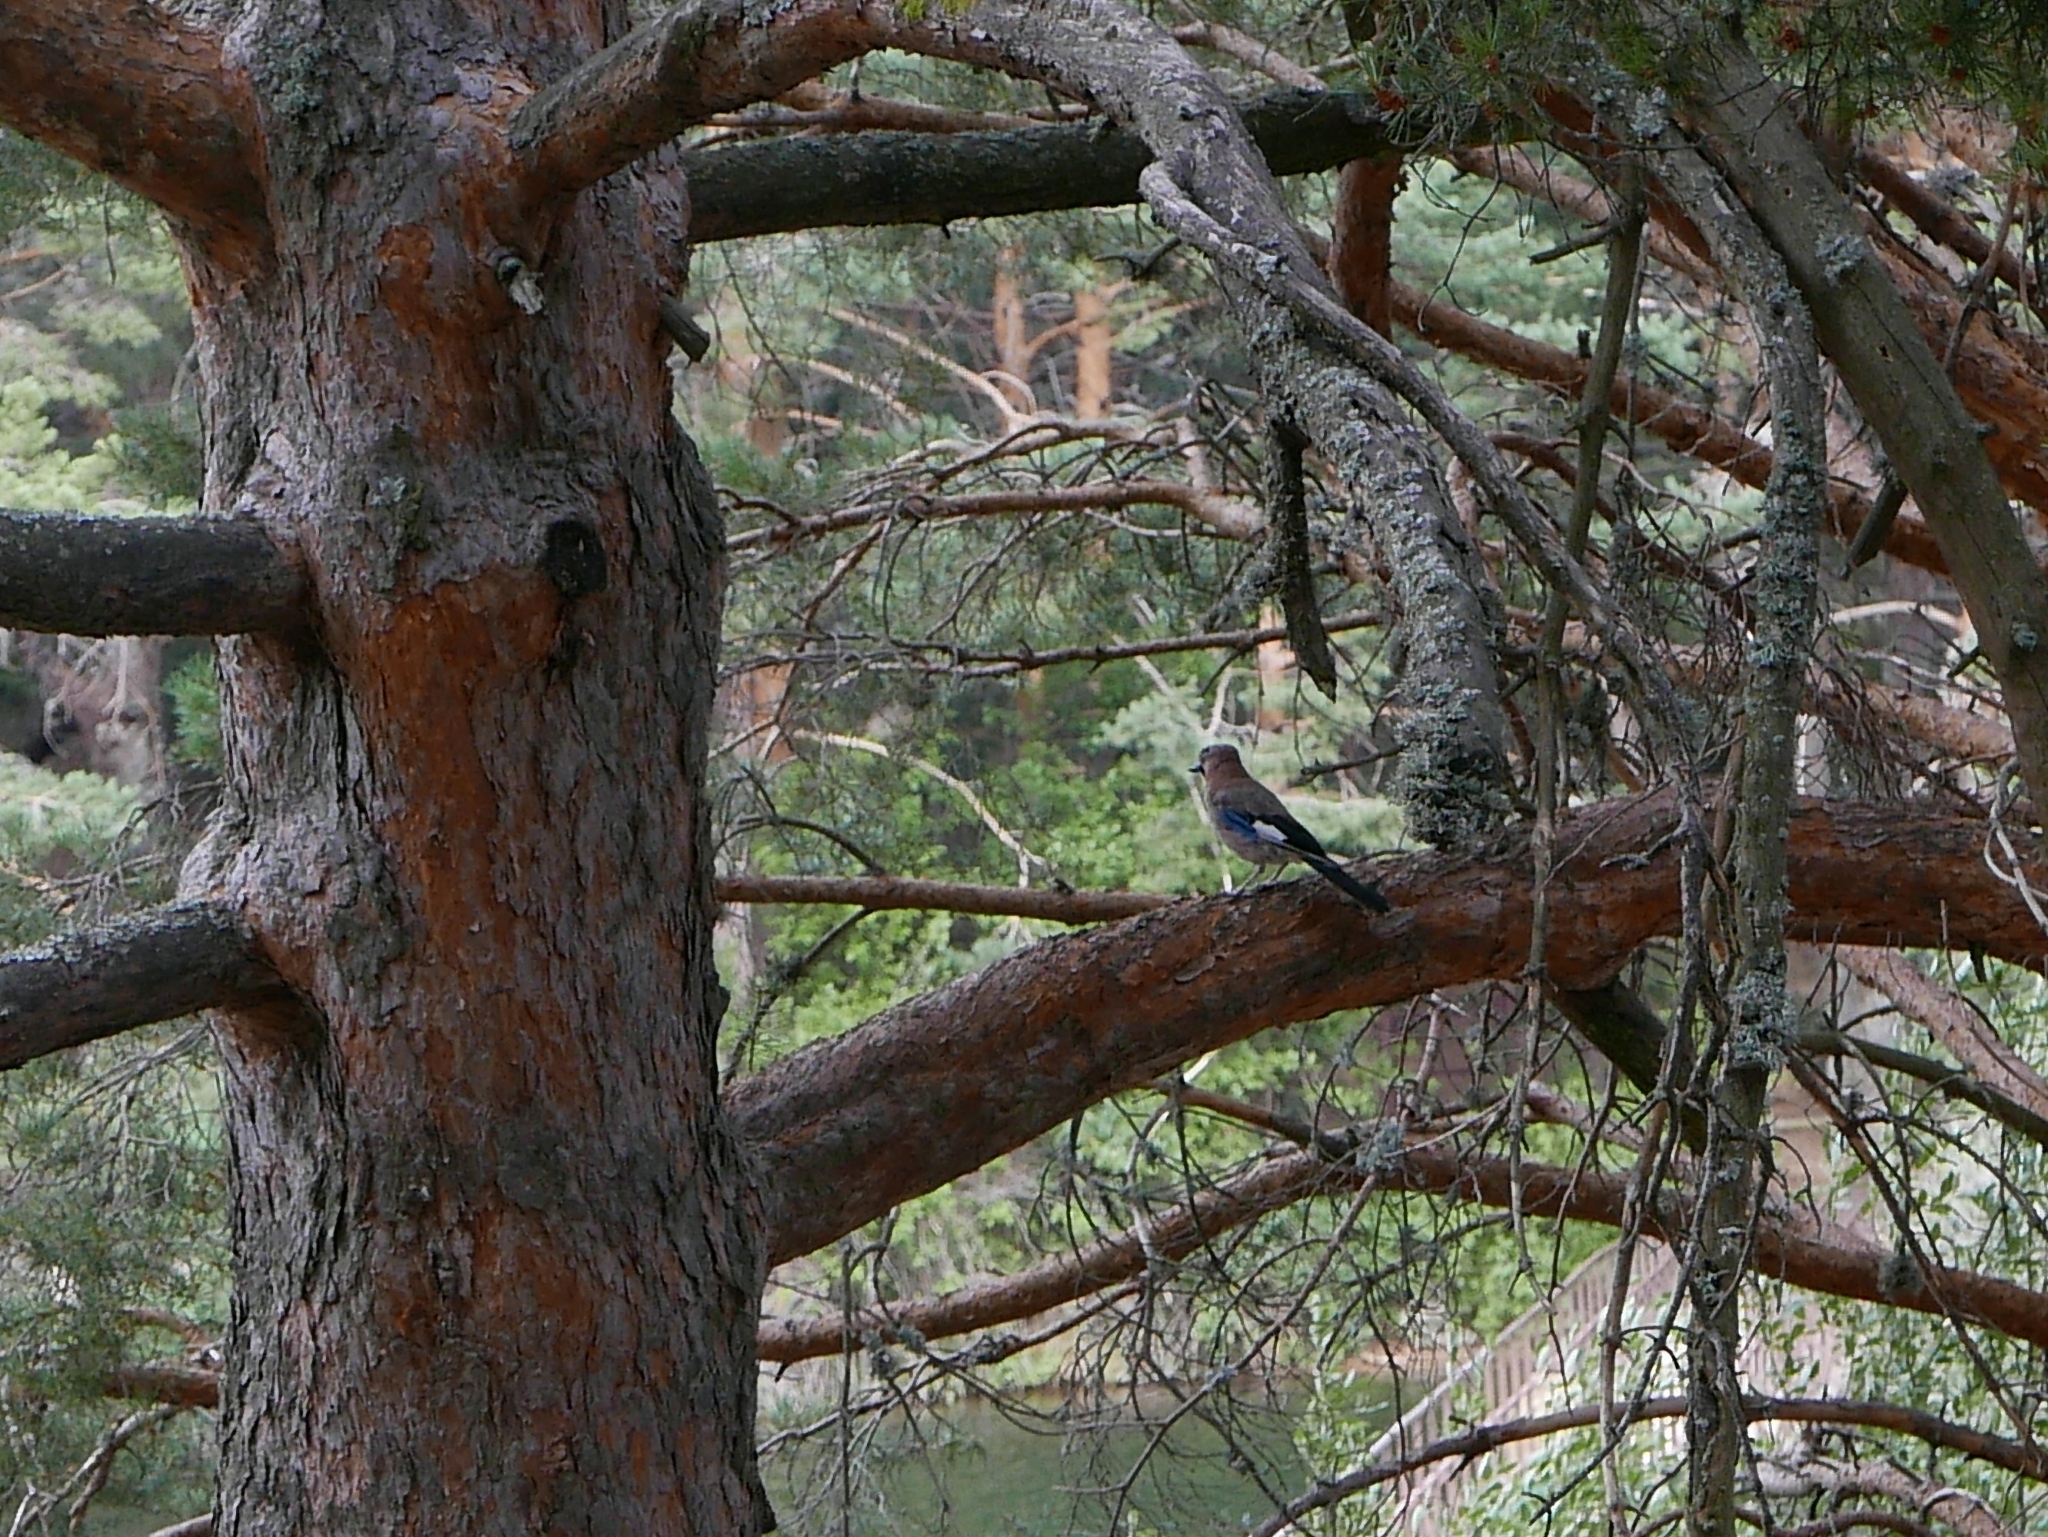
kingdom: Animalia
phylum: Chordata
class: Aves
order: Passeriformes
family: Corvidae
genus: Garrulus
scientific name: Garrulus glandarius
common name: Eurasian jay
